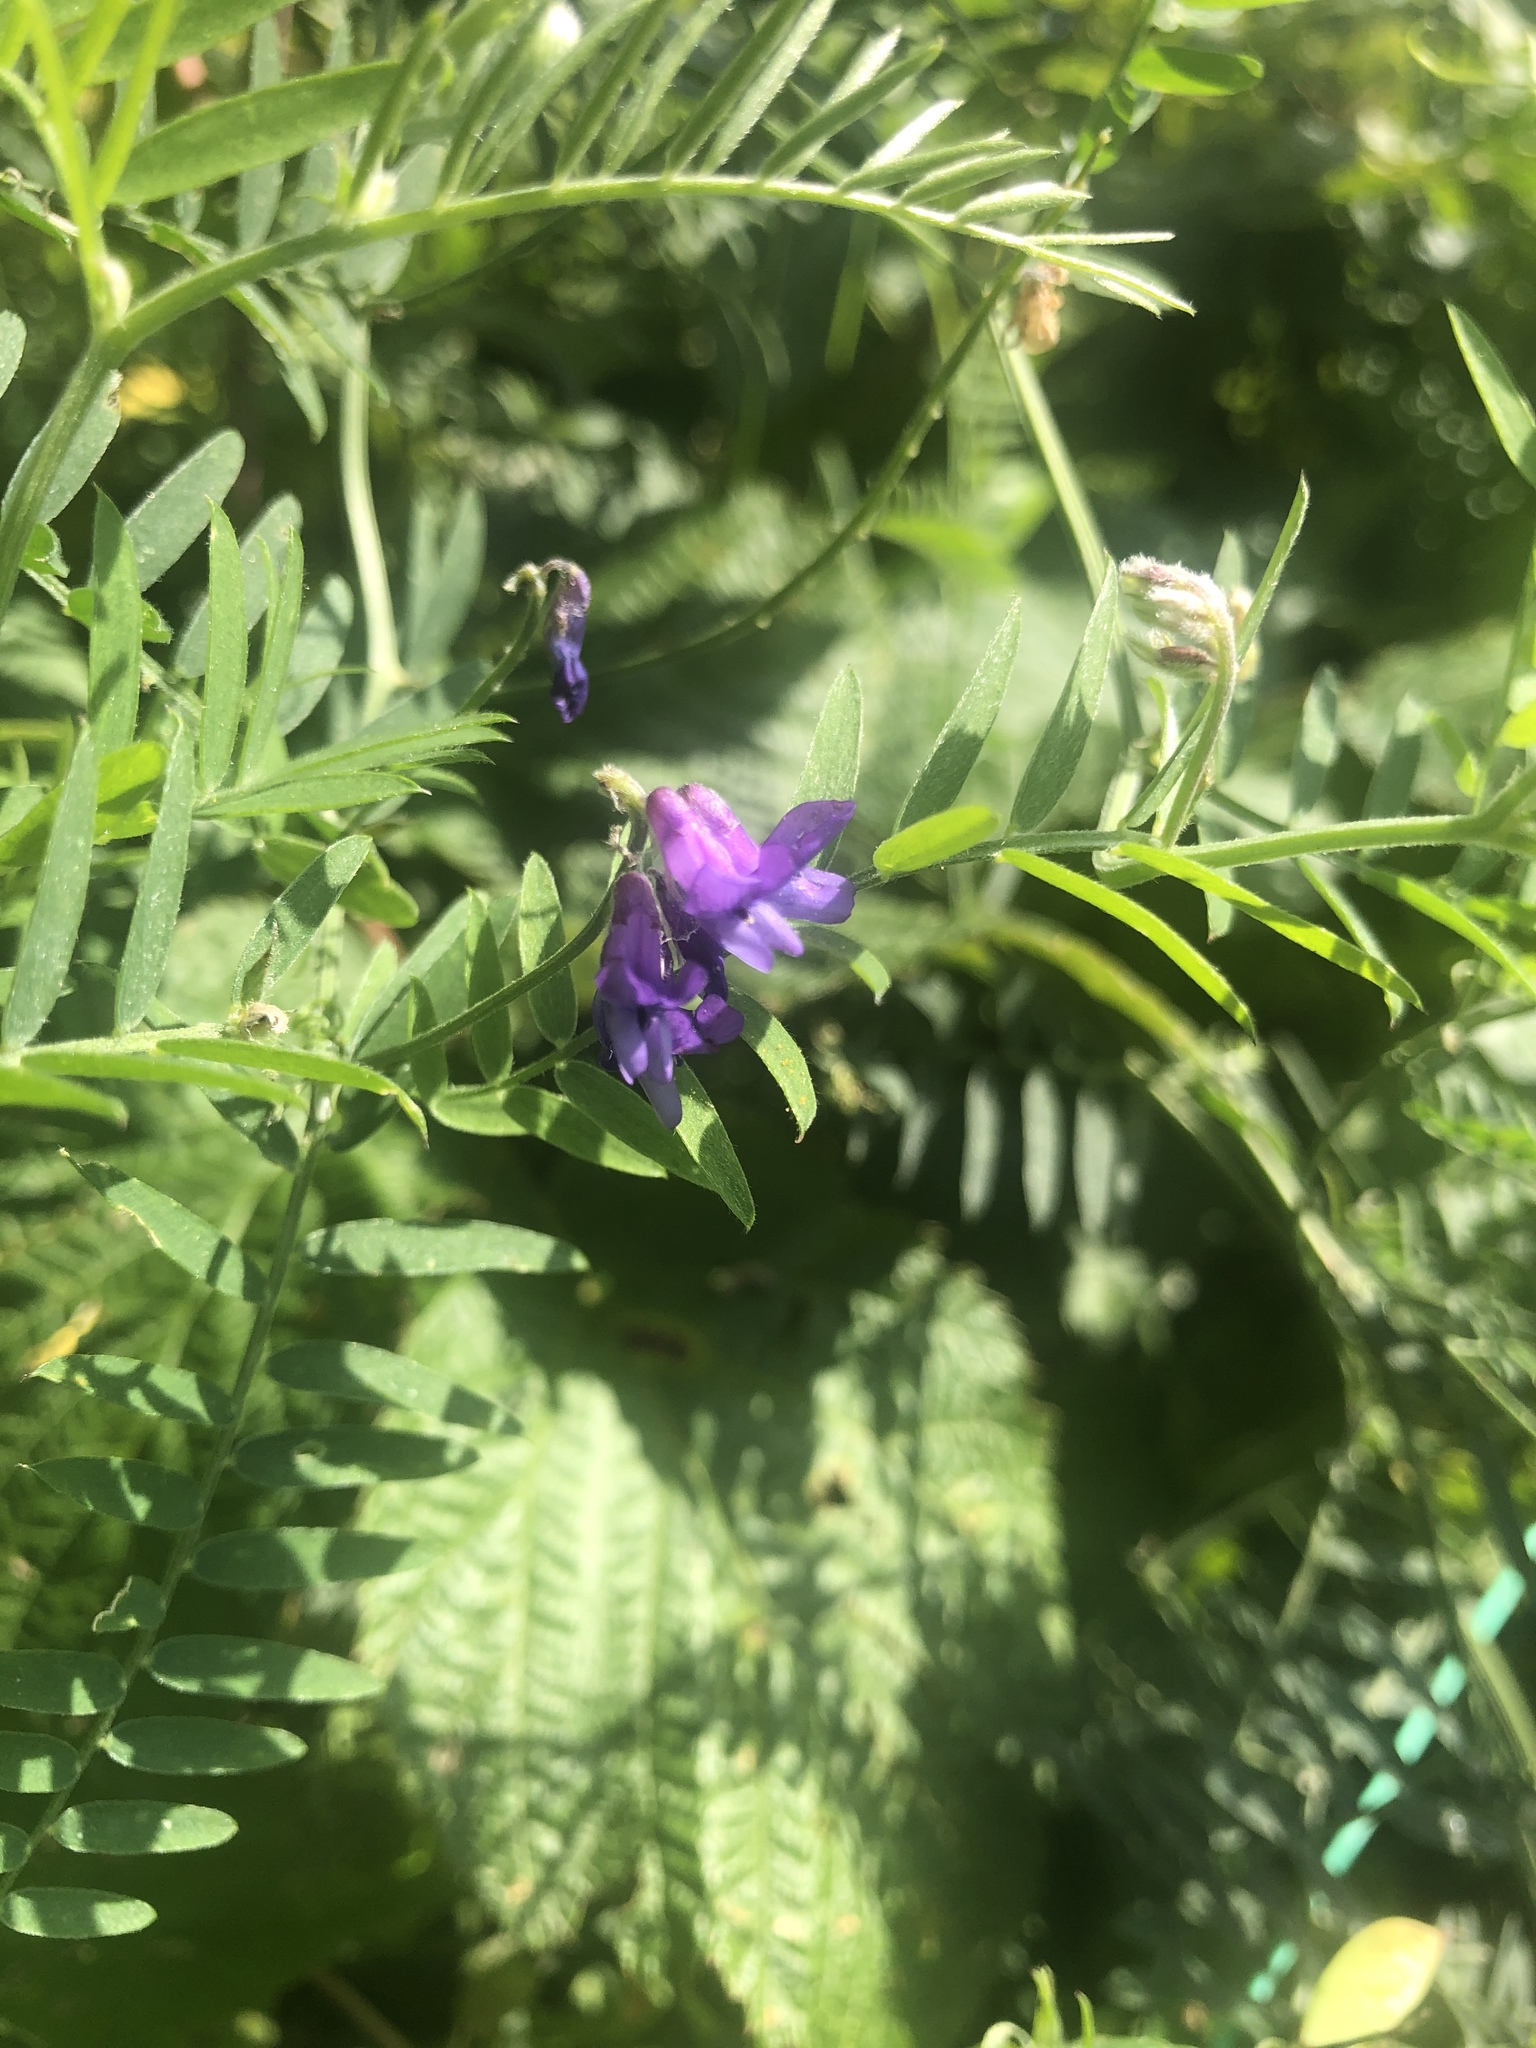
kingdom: Plantae
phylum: Tracheophyta
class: Magnoliopsida
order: Fabales
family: Fabaceae
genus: Vicia
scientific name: Vicia cracca
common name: Bird vetch
